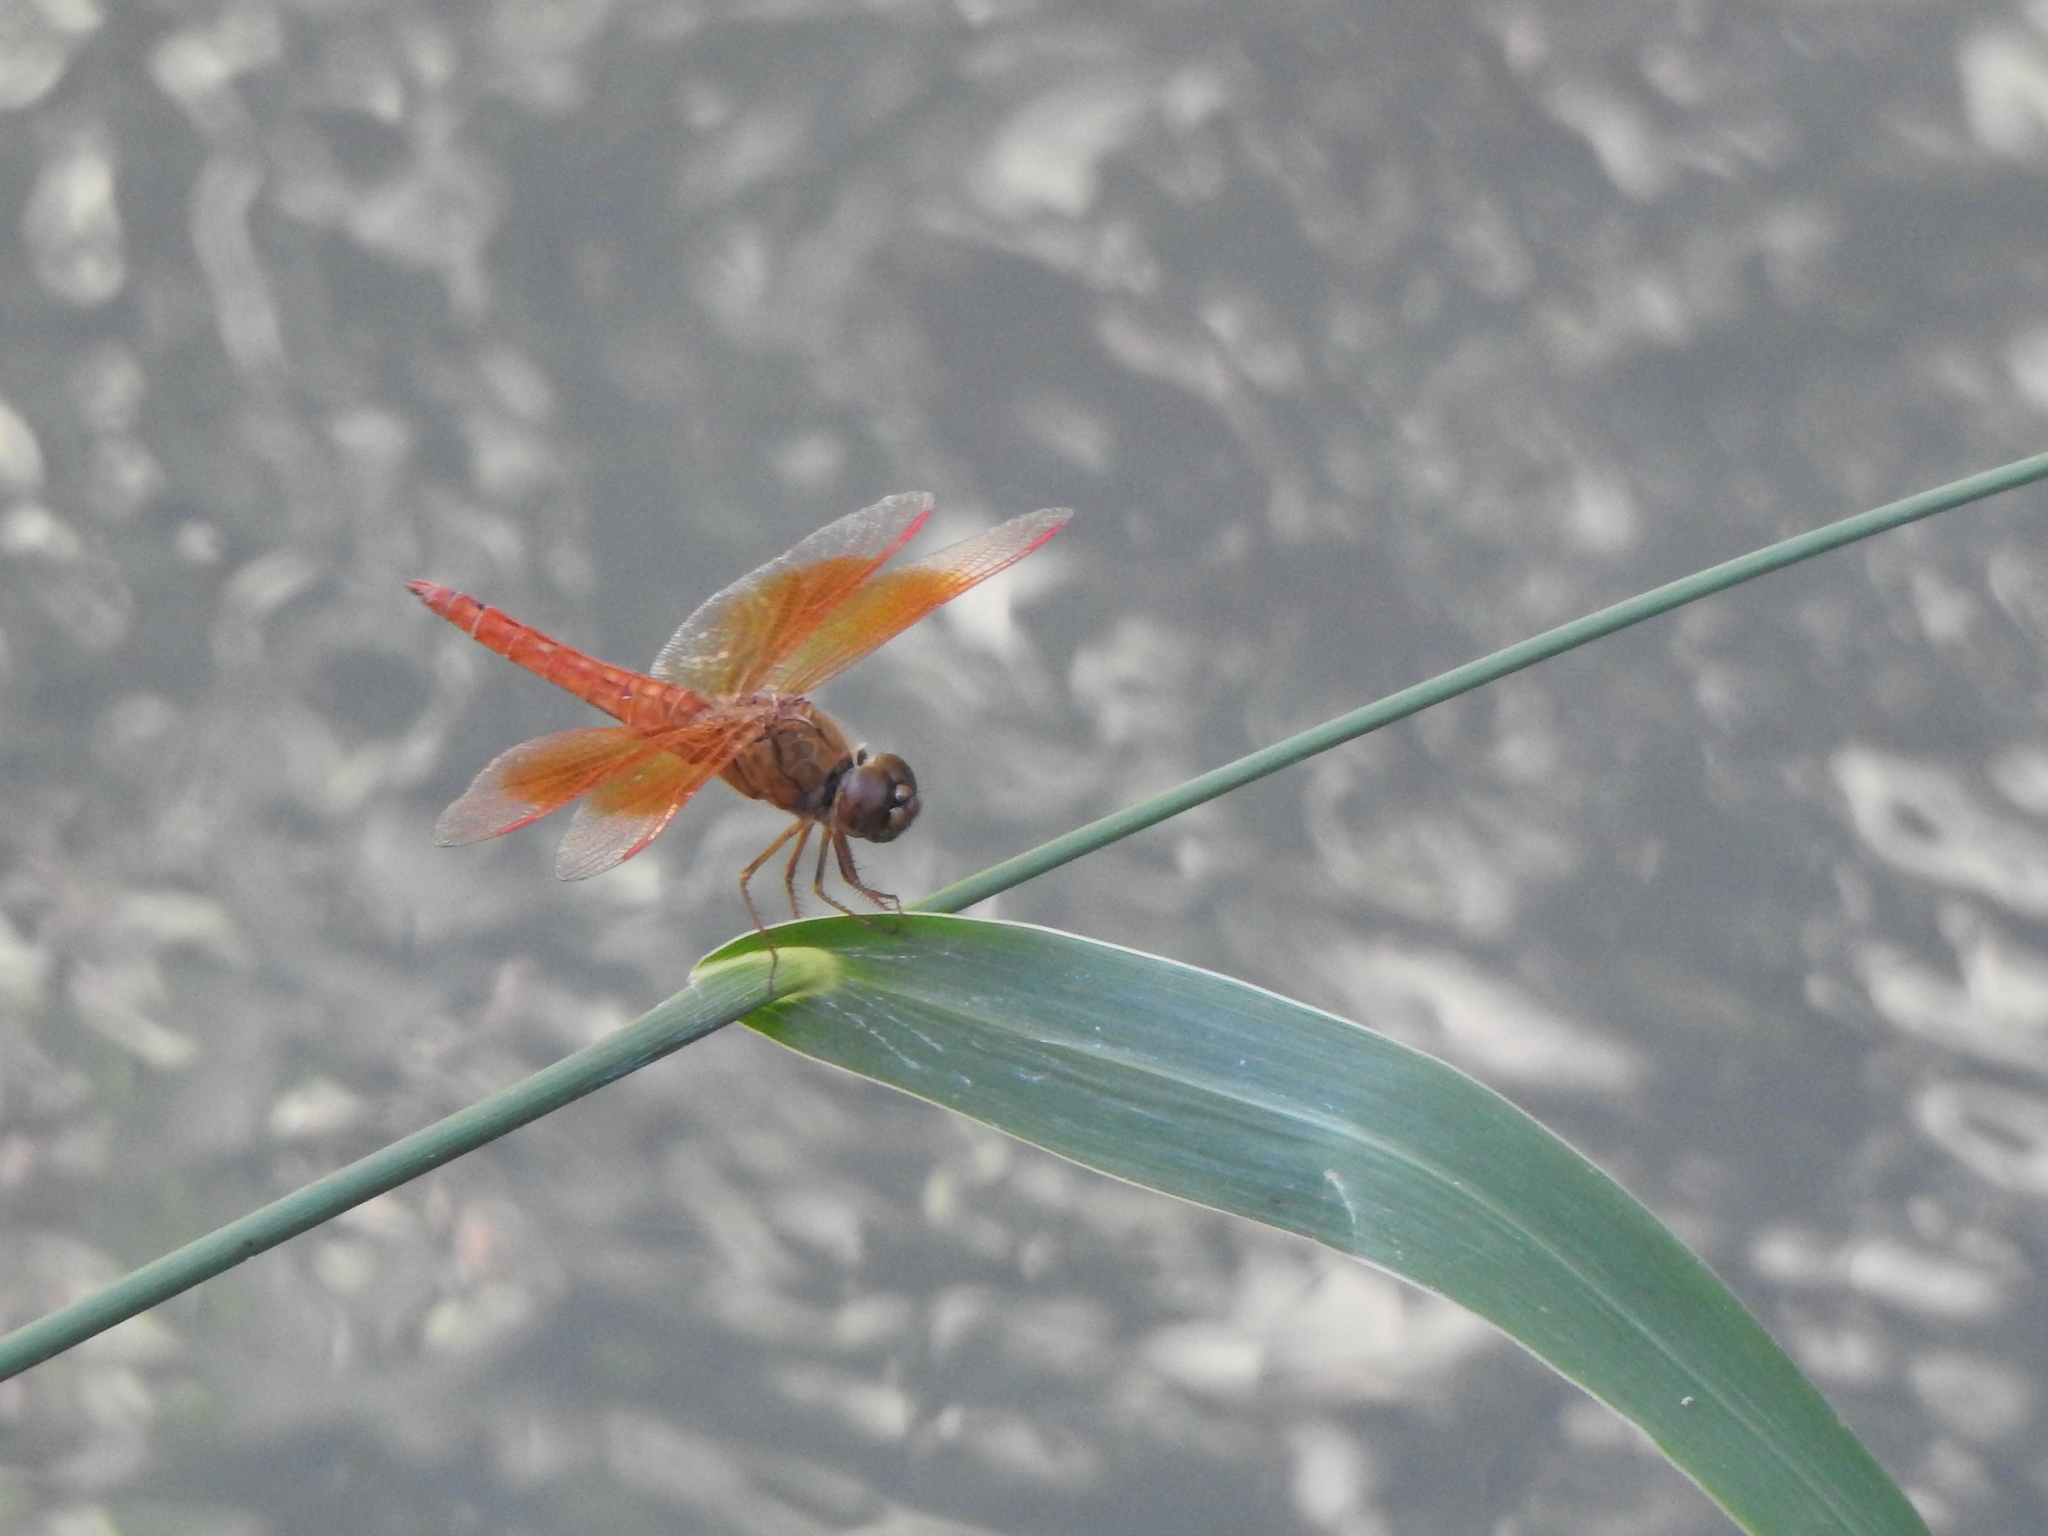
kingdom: Animalia
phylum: Arthropoda
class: Insecta
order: Odonata
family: Libellulidae
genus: Brachythemis
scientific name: Brachythemis contaminata
